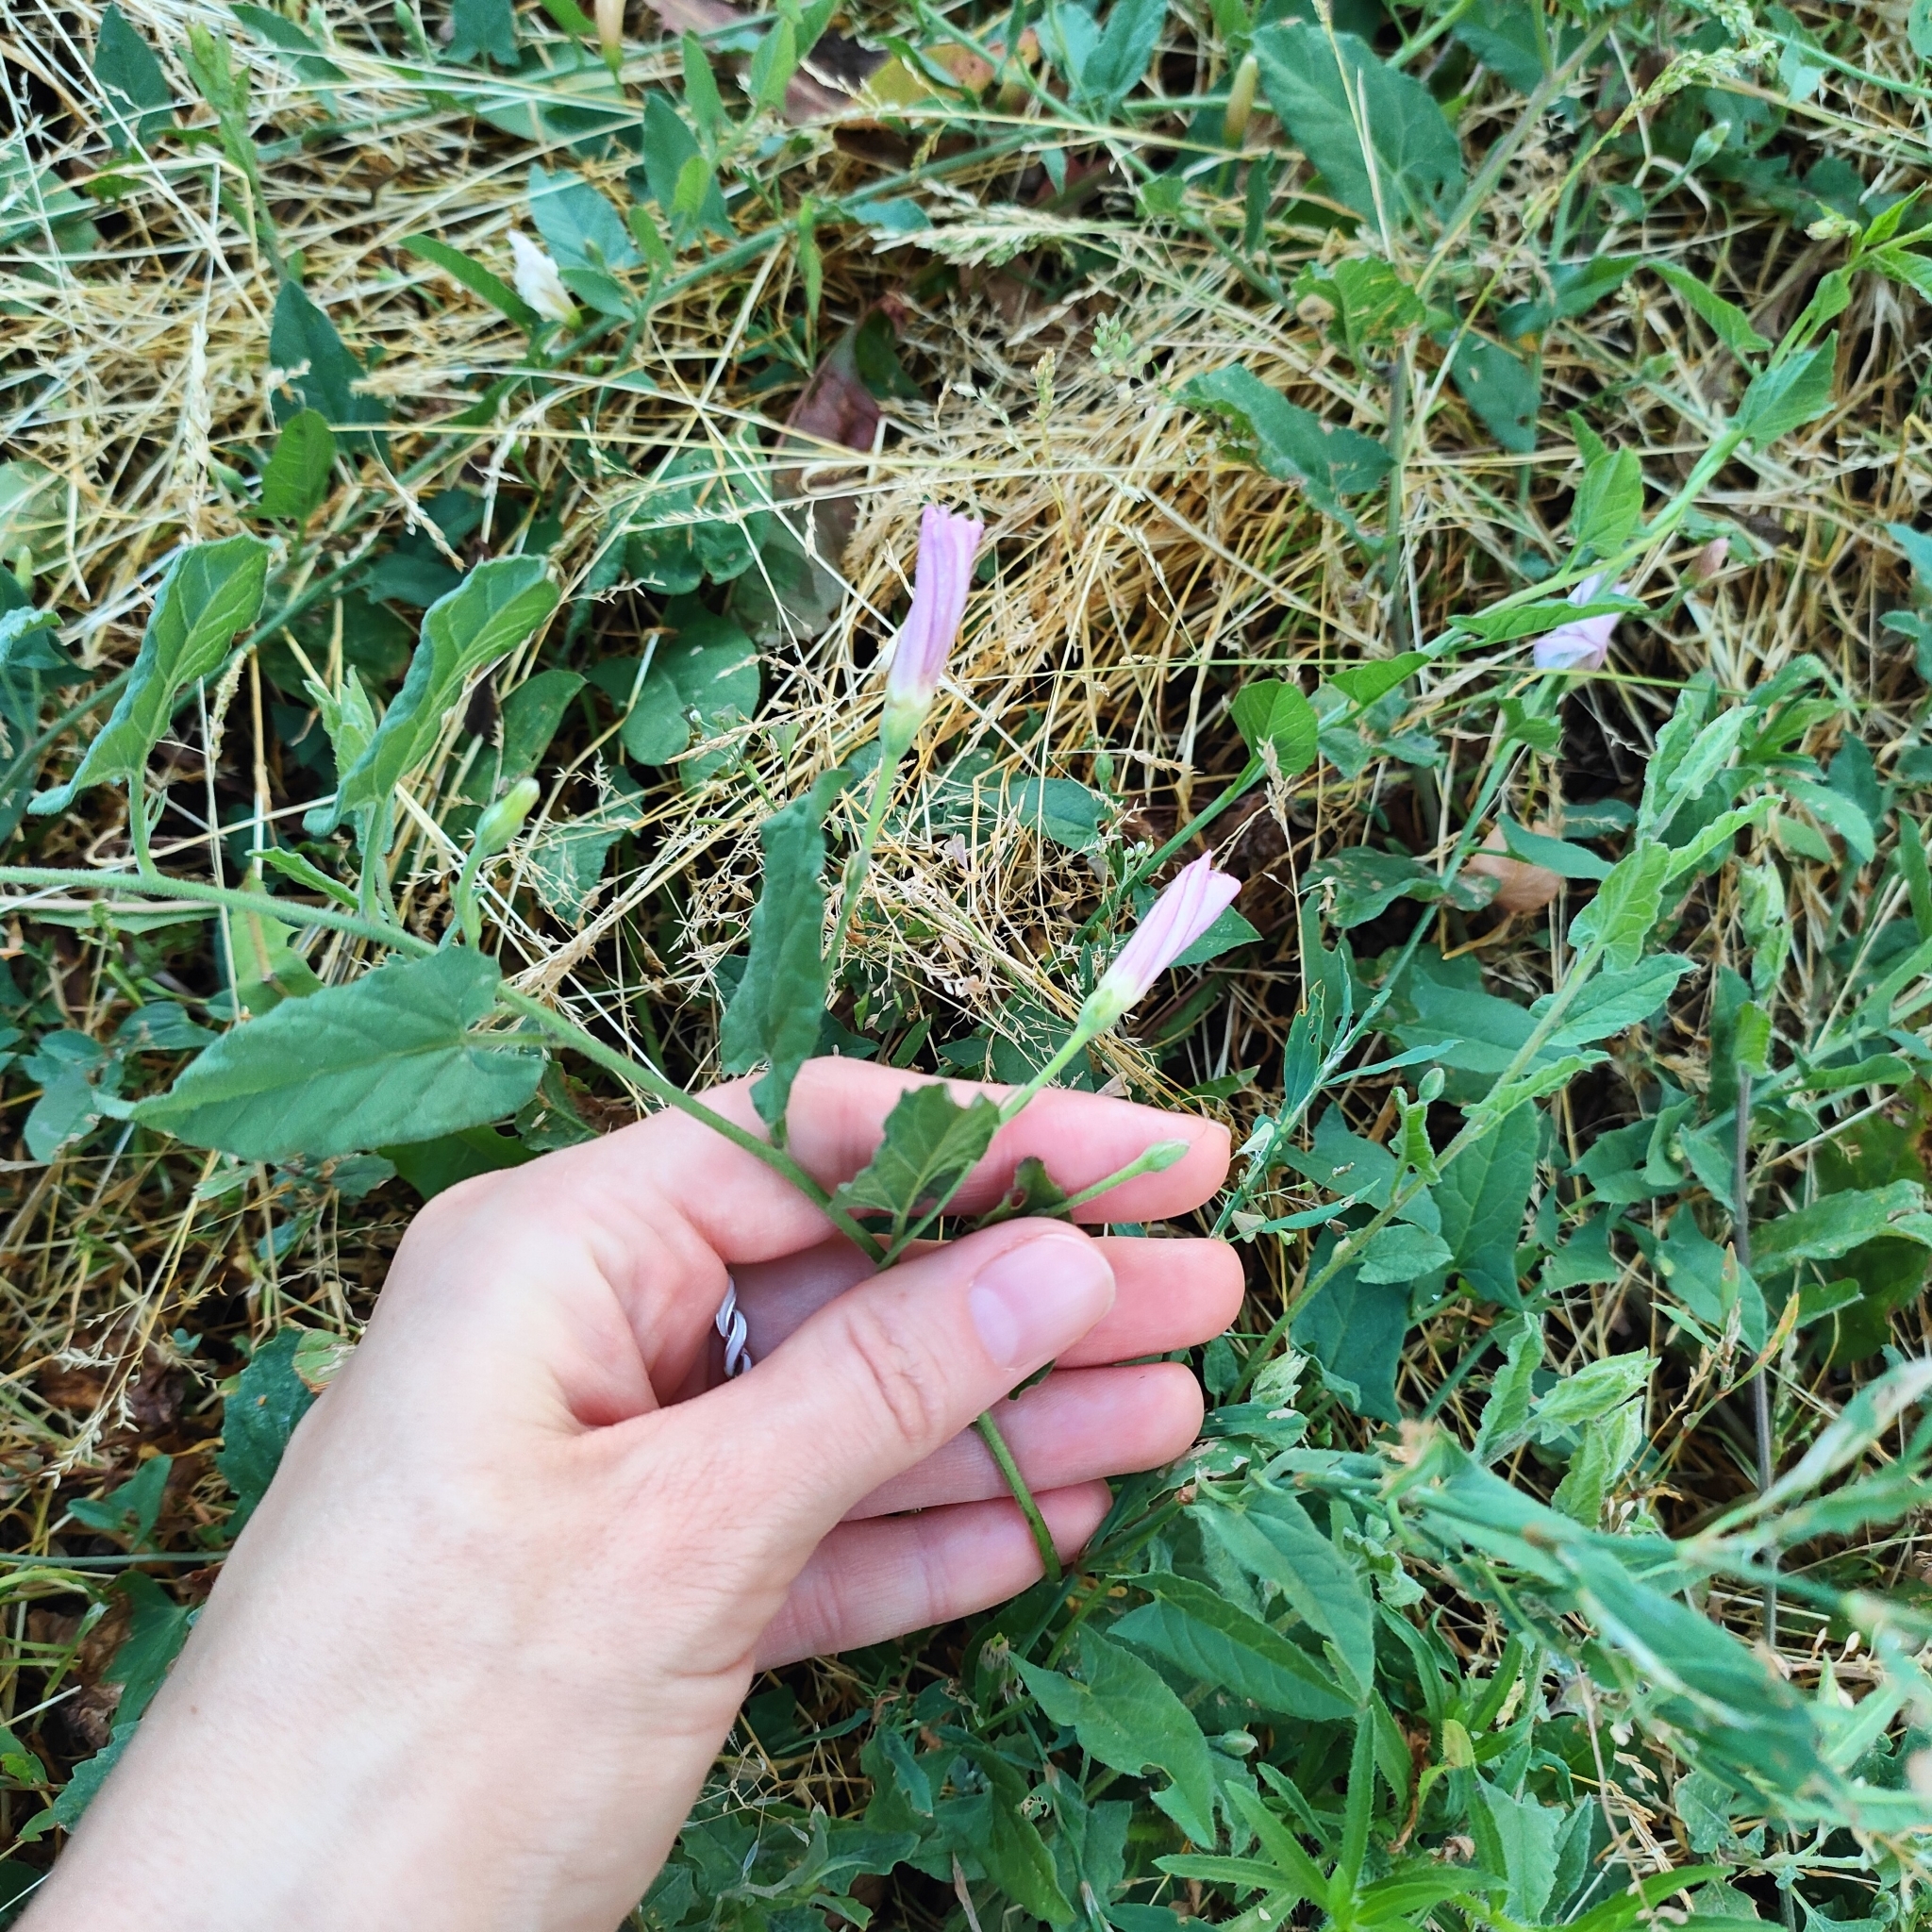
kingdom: Plantae
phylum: Tracheophyta
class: Magnoliopsida
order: Solanales
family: Convolvulaceae
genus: Convolvulus
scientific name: Convolvulus arvensis
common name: Field bindweed
